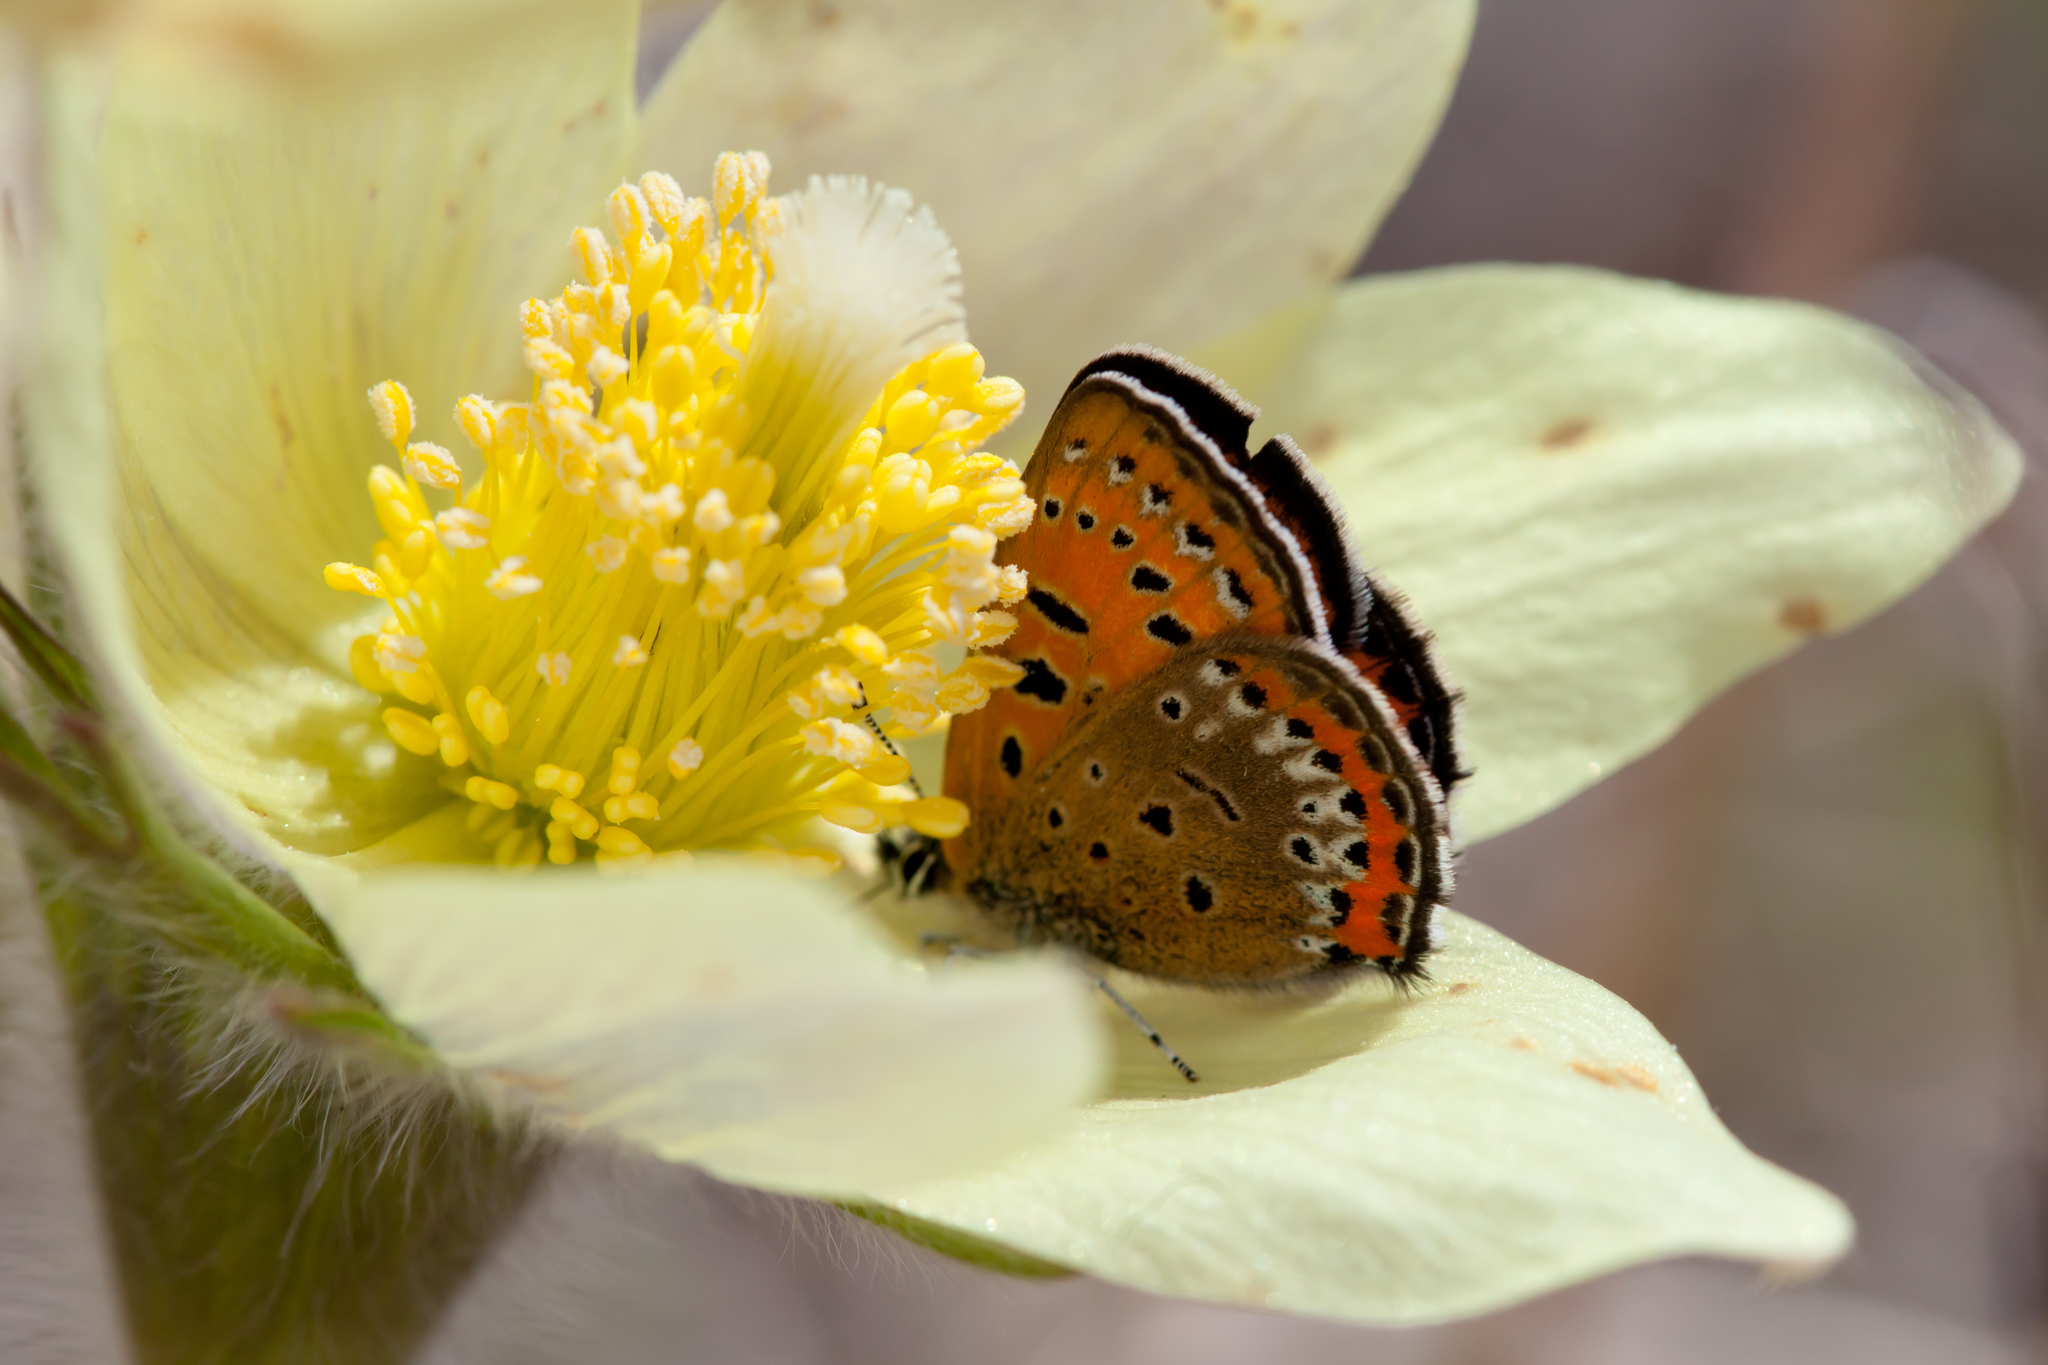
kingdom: Animalia
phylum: Arthropoda
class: Insecta
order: Lepidoptera
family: Lycaenidae
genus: Helleia
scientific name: Helleia helle
